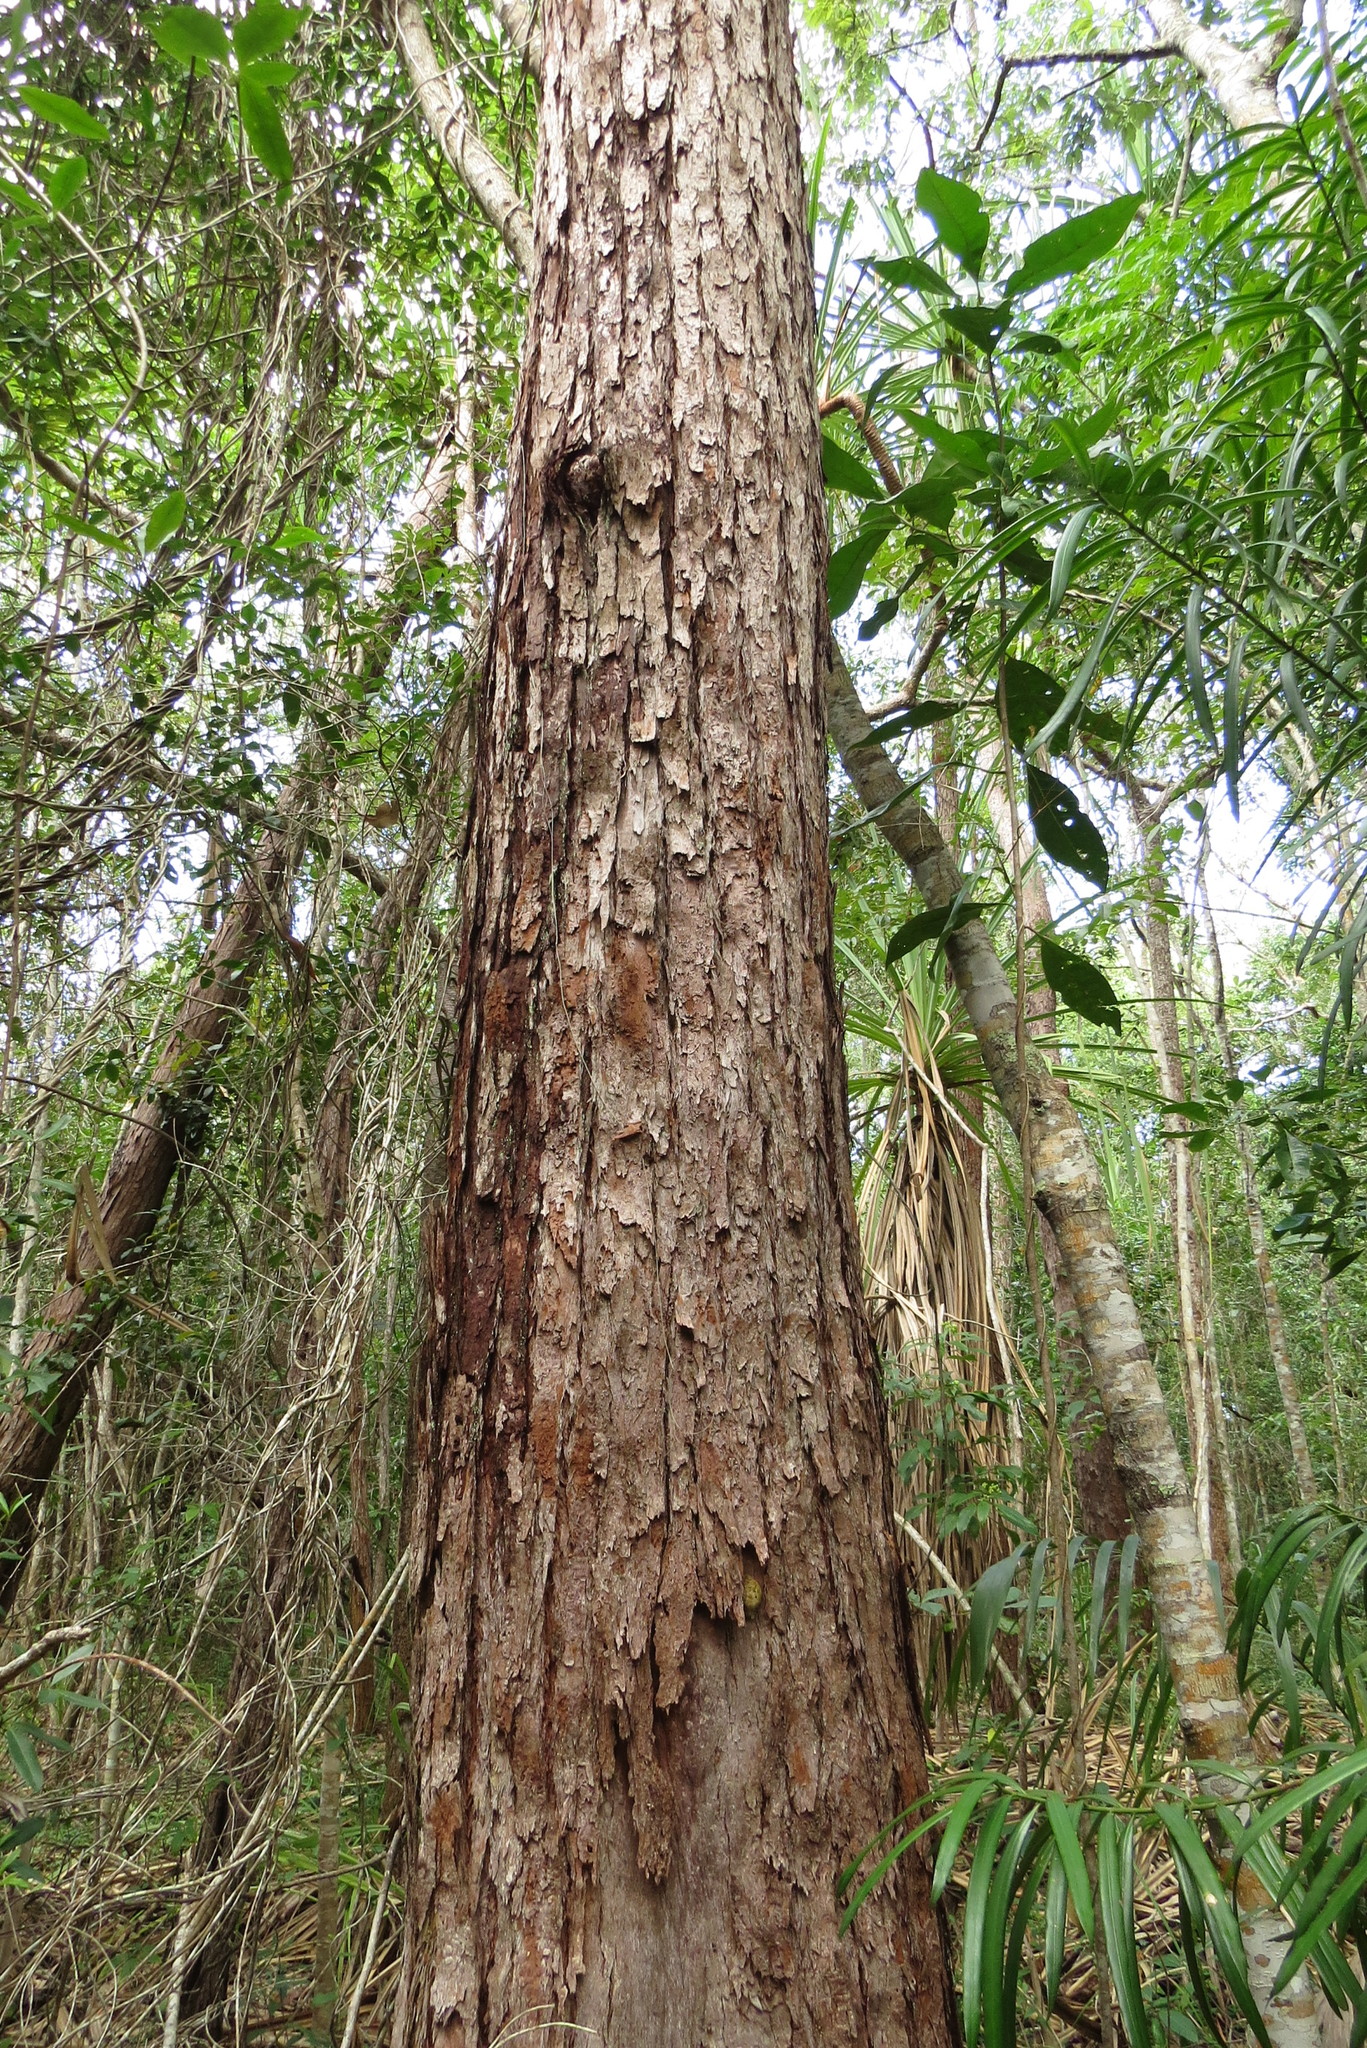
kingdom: Plantae
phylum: Tracheophyta
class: Magnoliopsida
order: Myrtales
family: Myrtaceae
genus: Eucalyptus
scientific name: Eucalyptus pellita
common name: Large-fruited-red-mahogany
